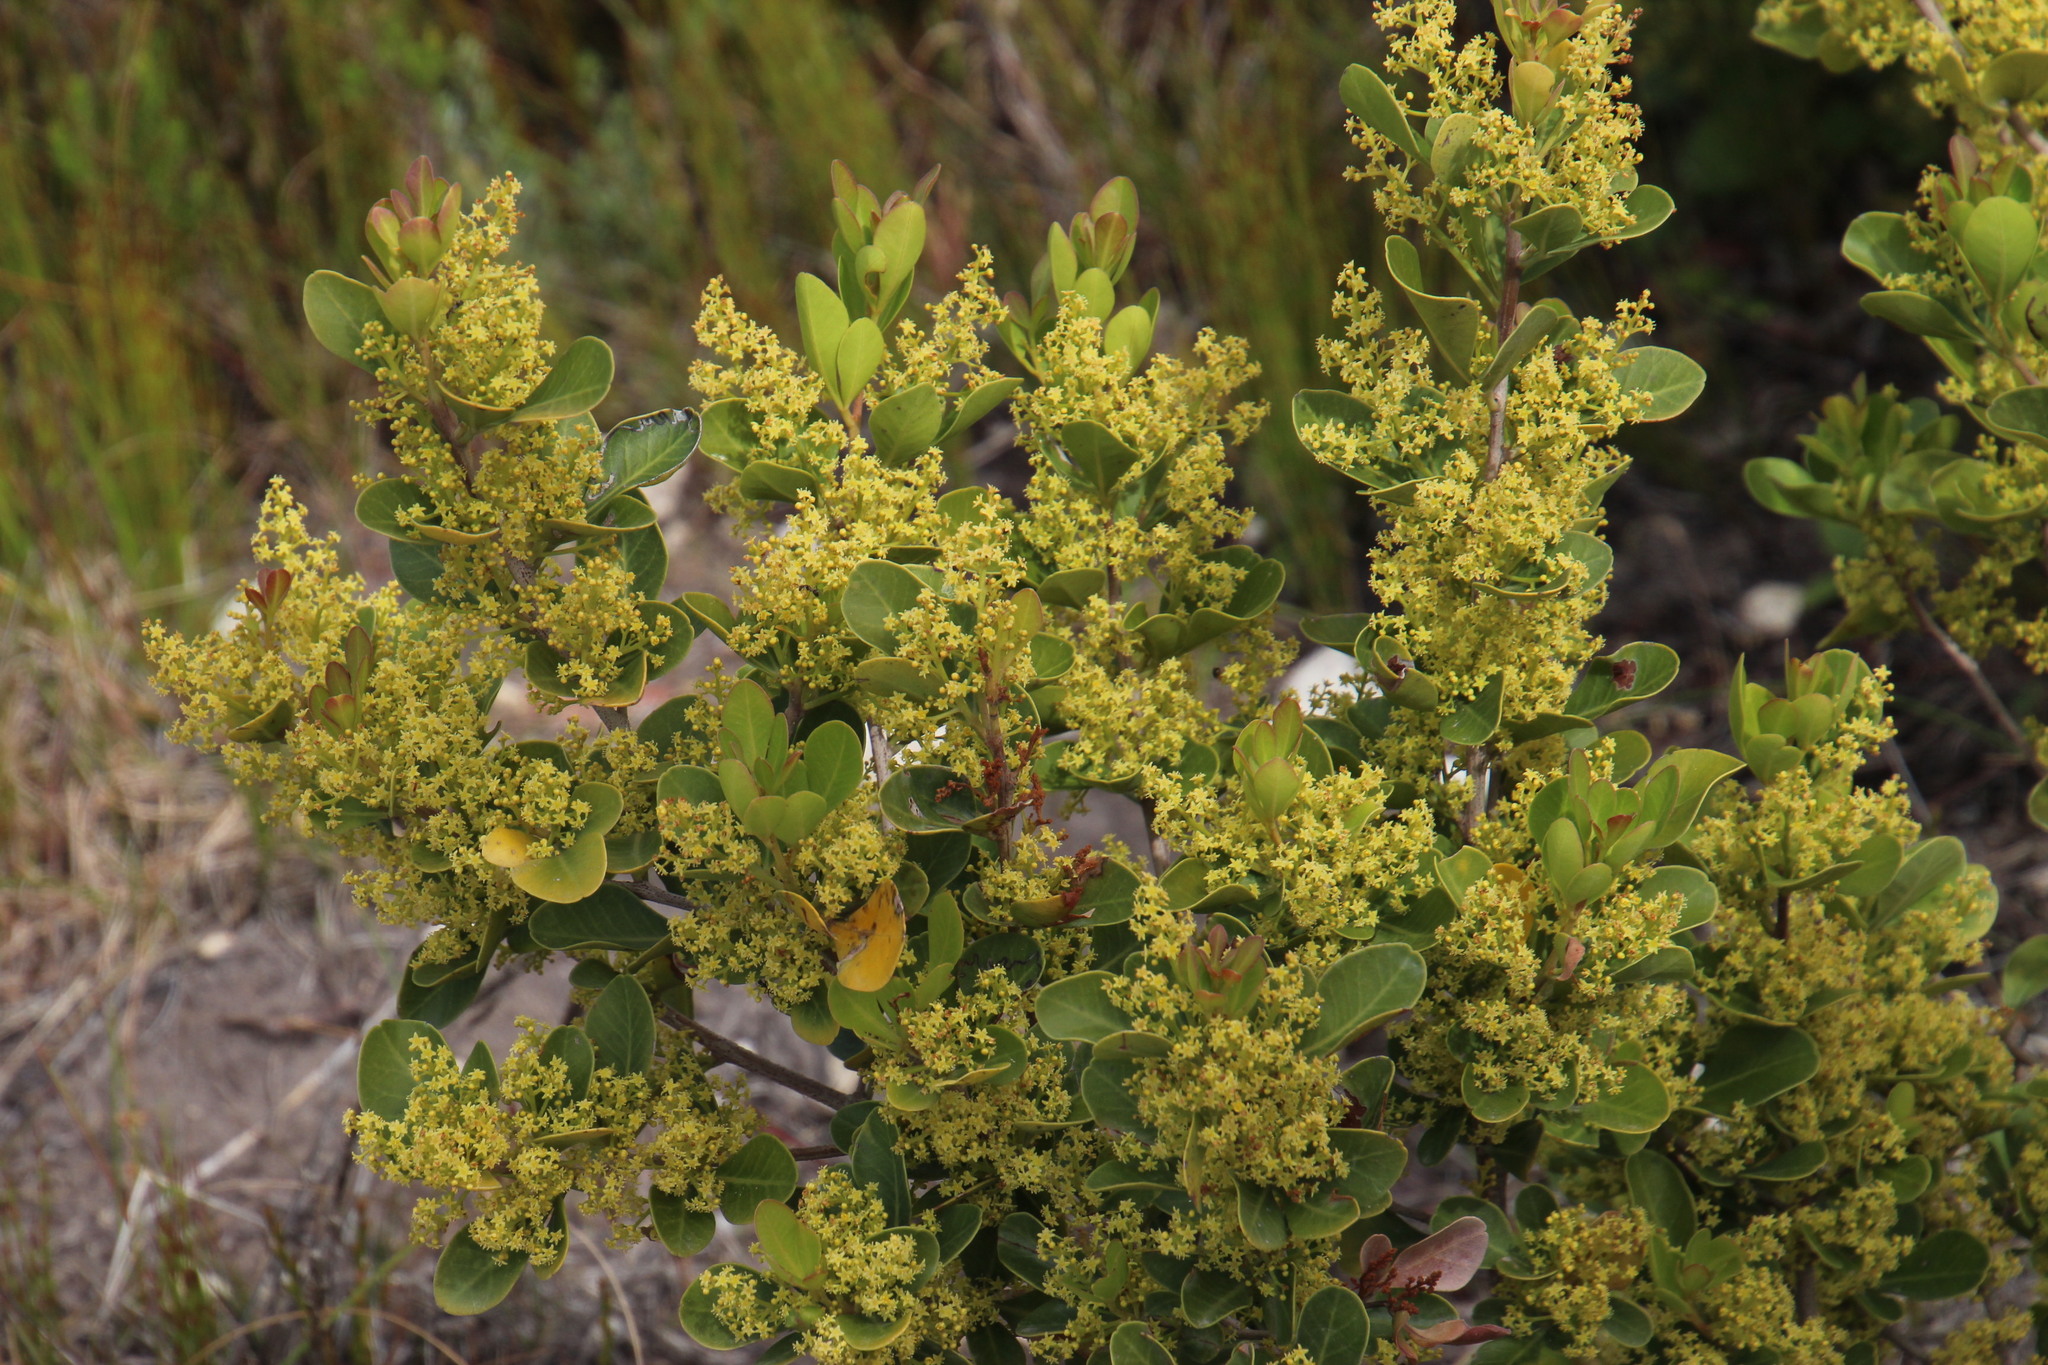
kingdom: Plantae
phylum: Tracheophyta
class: Magnoliopsida
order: Sapindales
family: Anacardiaceae
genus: Searsia
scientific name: Searsia lucida
